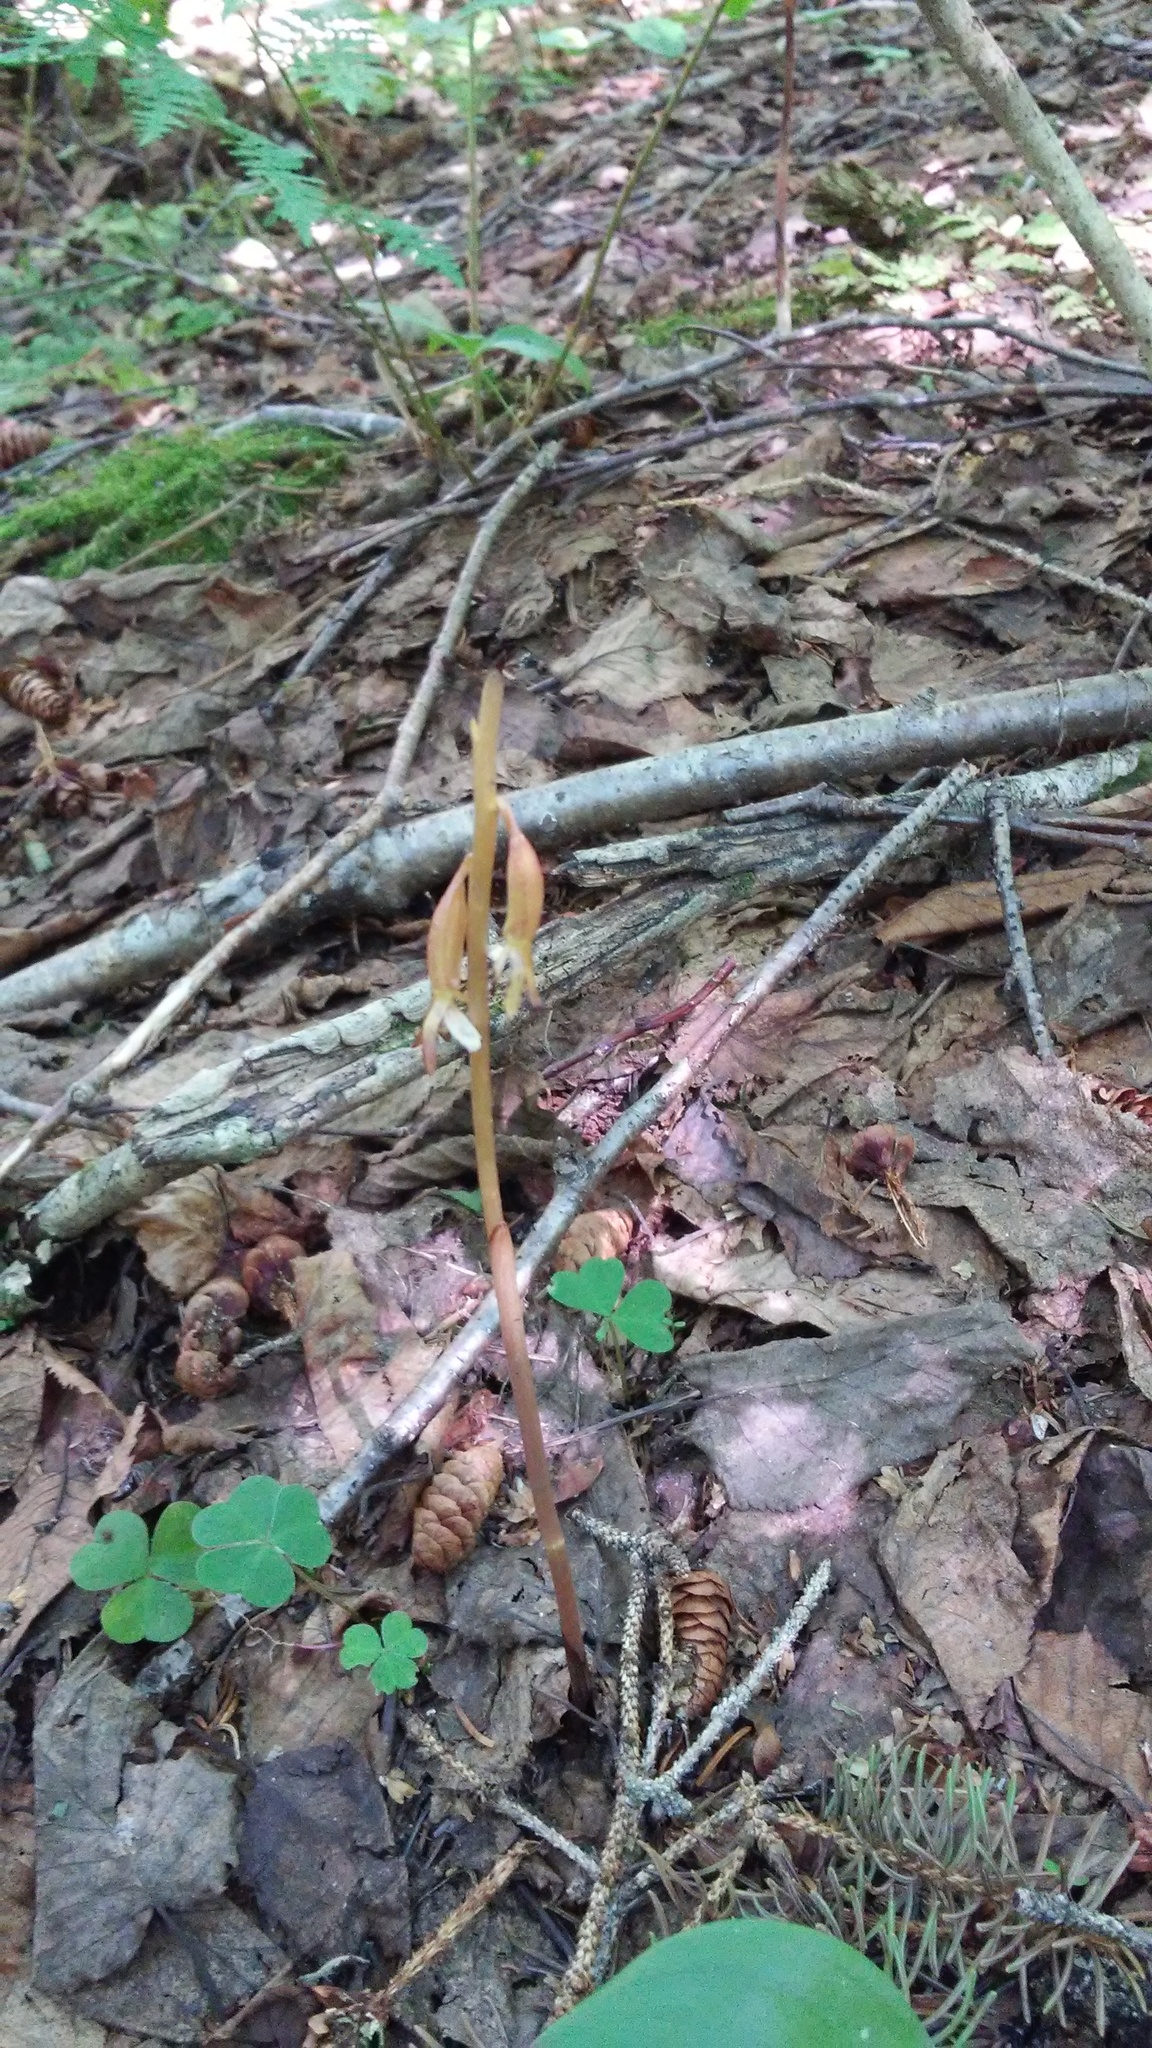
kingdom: Plantae
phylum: Tracheophyta
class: Liliopsida
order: Asparagales
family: Orchidaceae
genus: Corallorhiza
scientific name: Corallorhiza maculata
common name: Spotted coralroot
